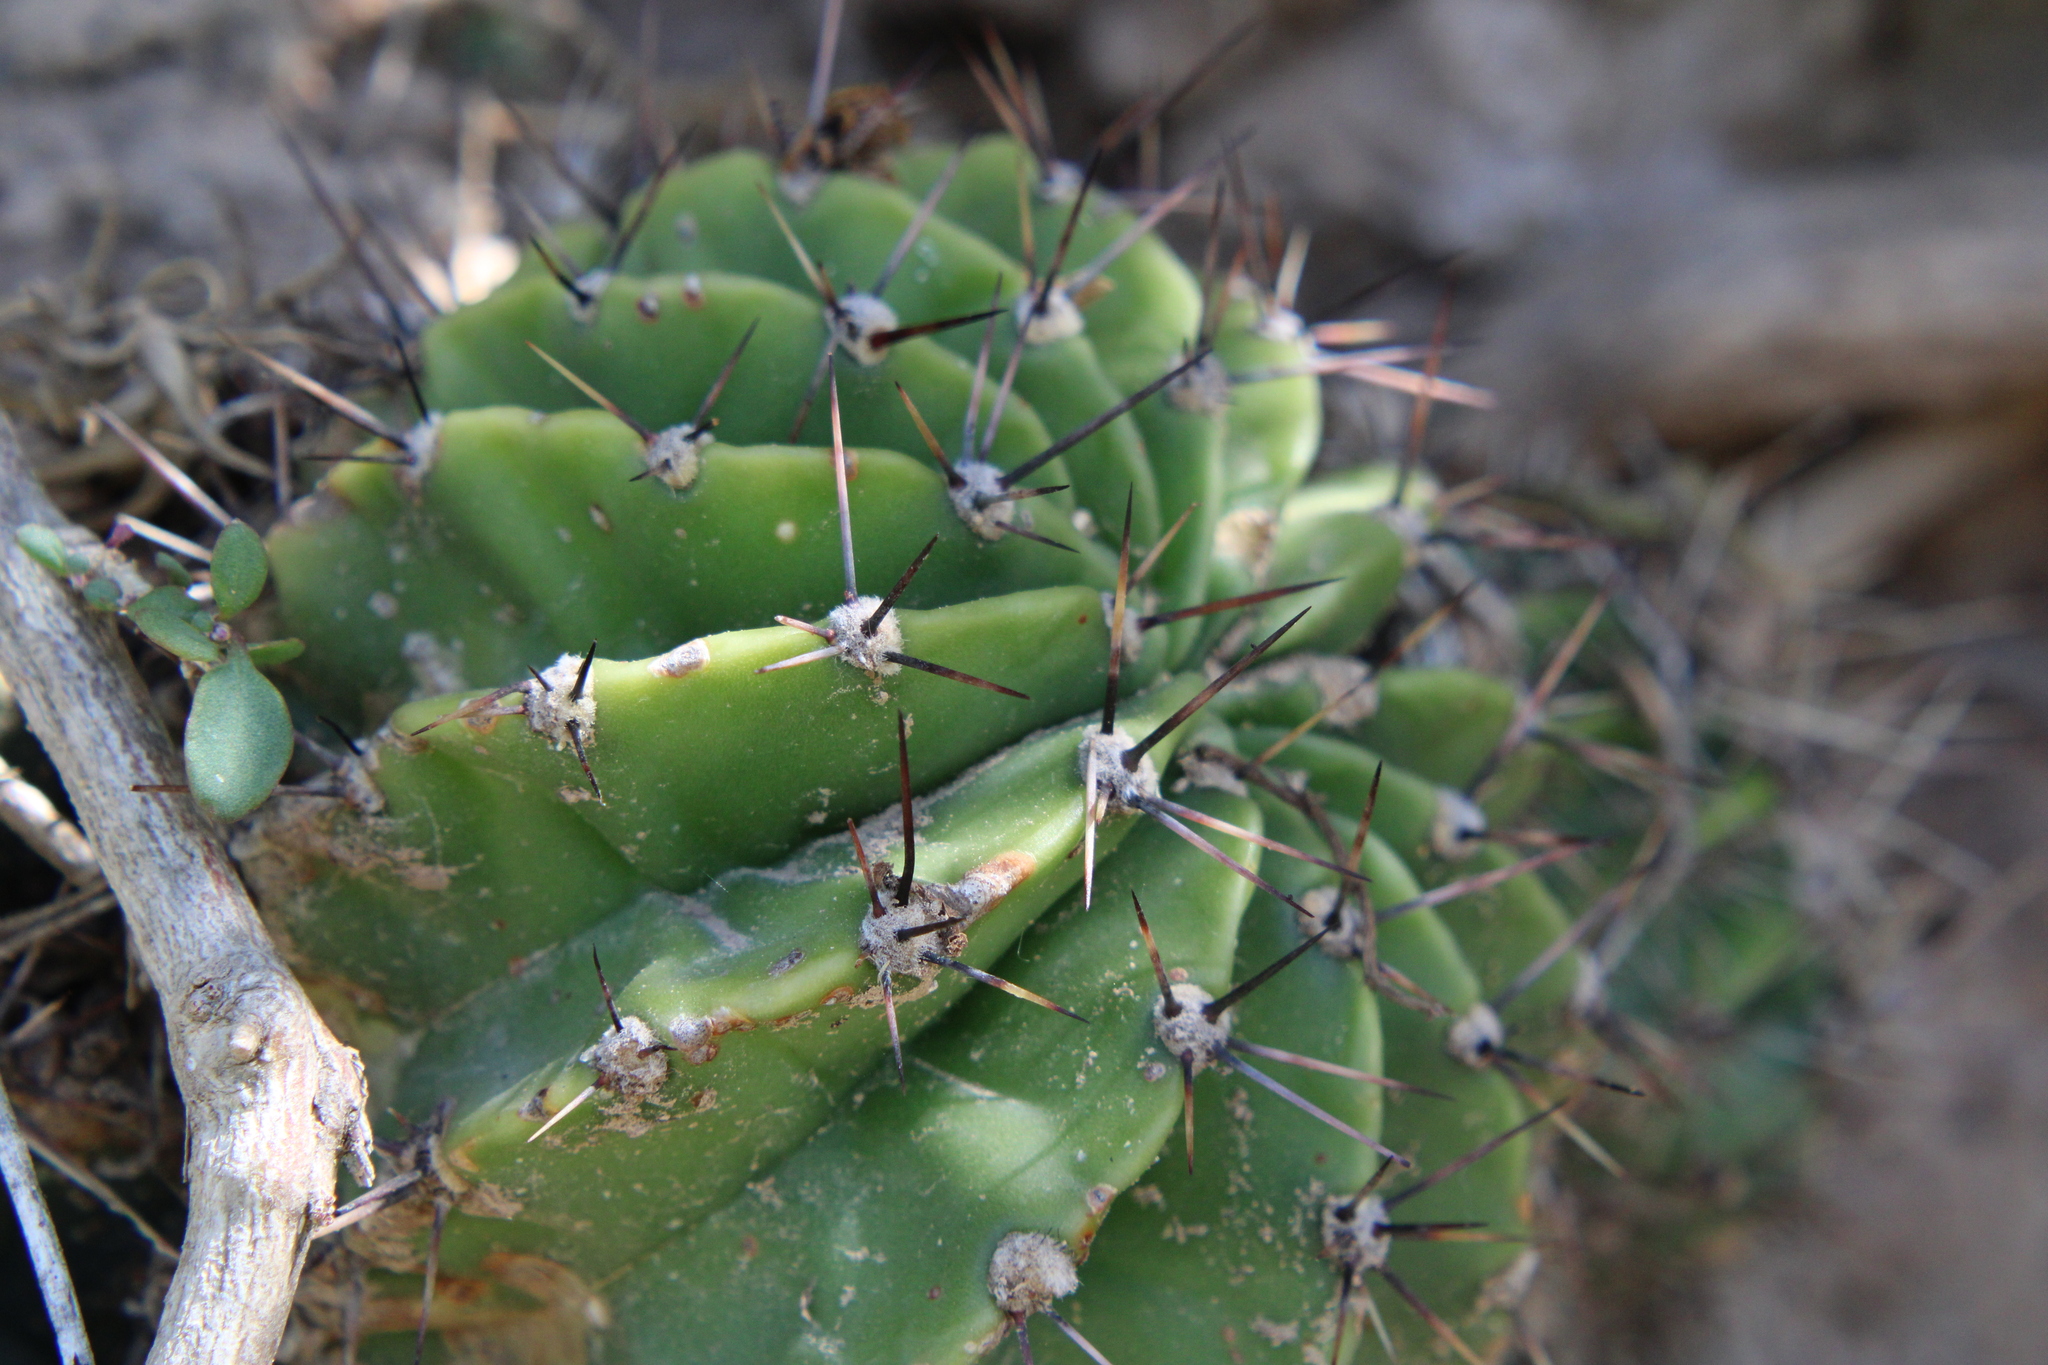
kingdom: Plantae
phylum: Tracheophyta
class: Magnoliopsida
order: Caryophyllales
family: Cactaceae
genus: Echinopsis
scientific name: Echinopsis oxygona
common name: Red easter-lily cactus
